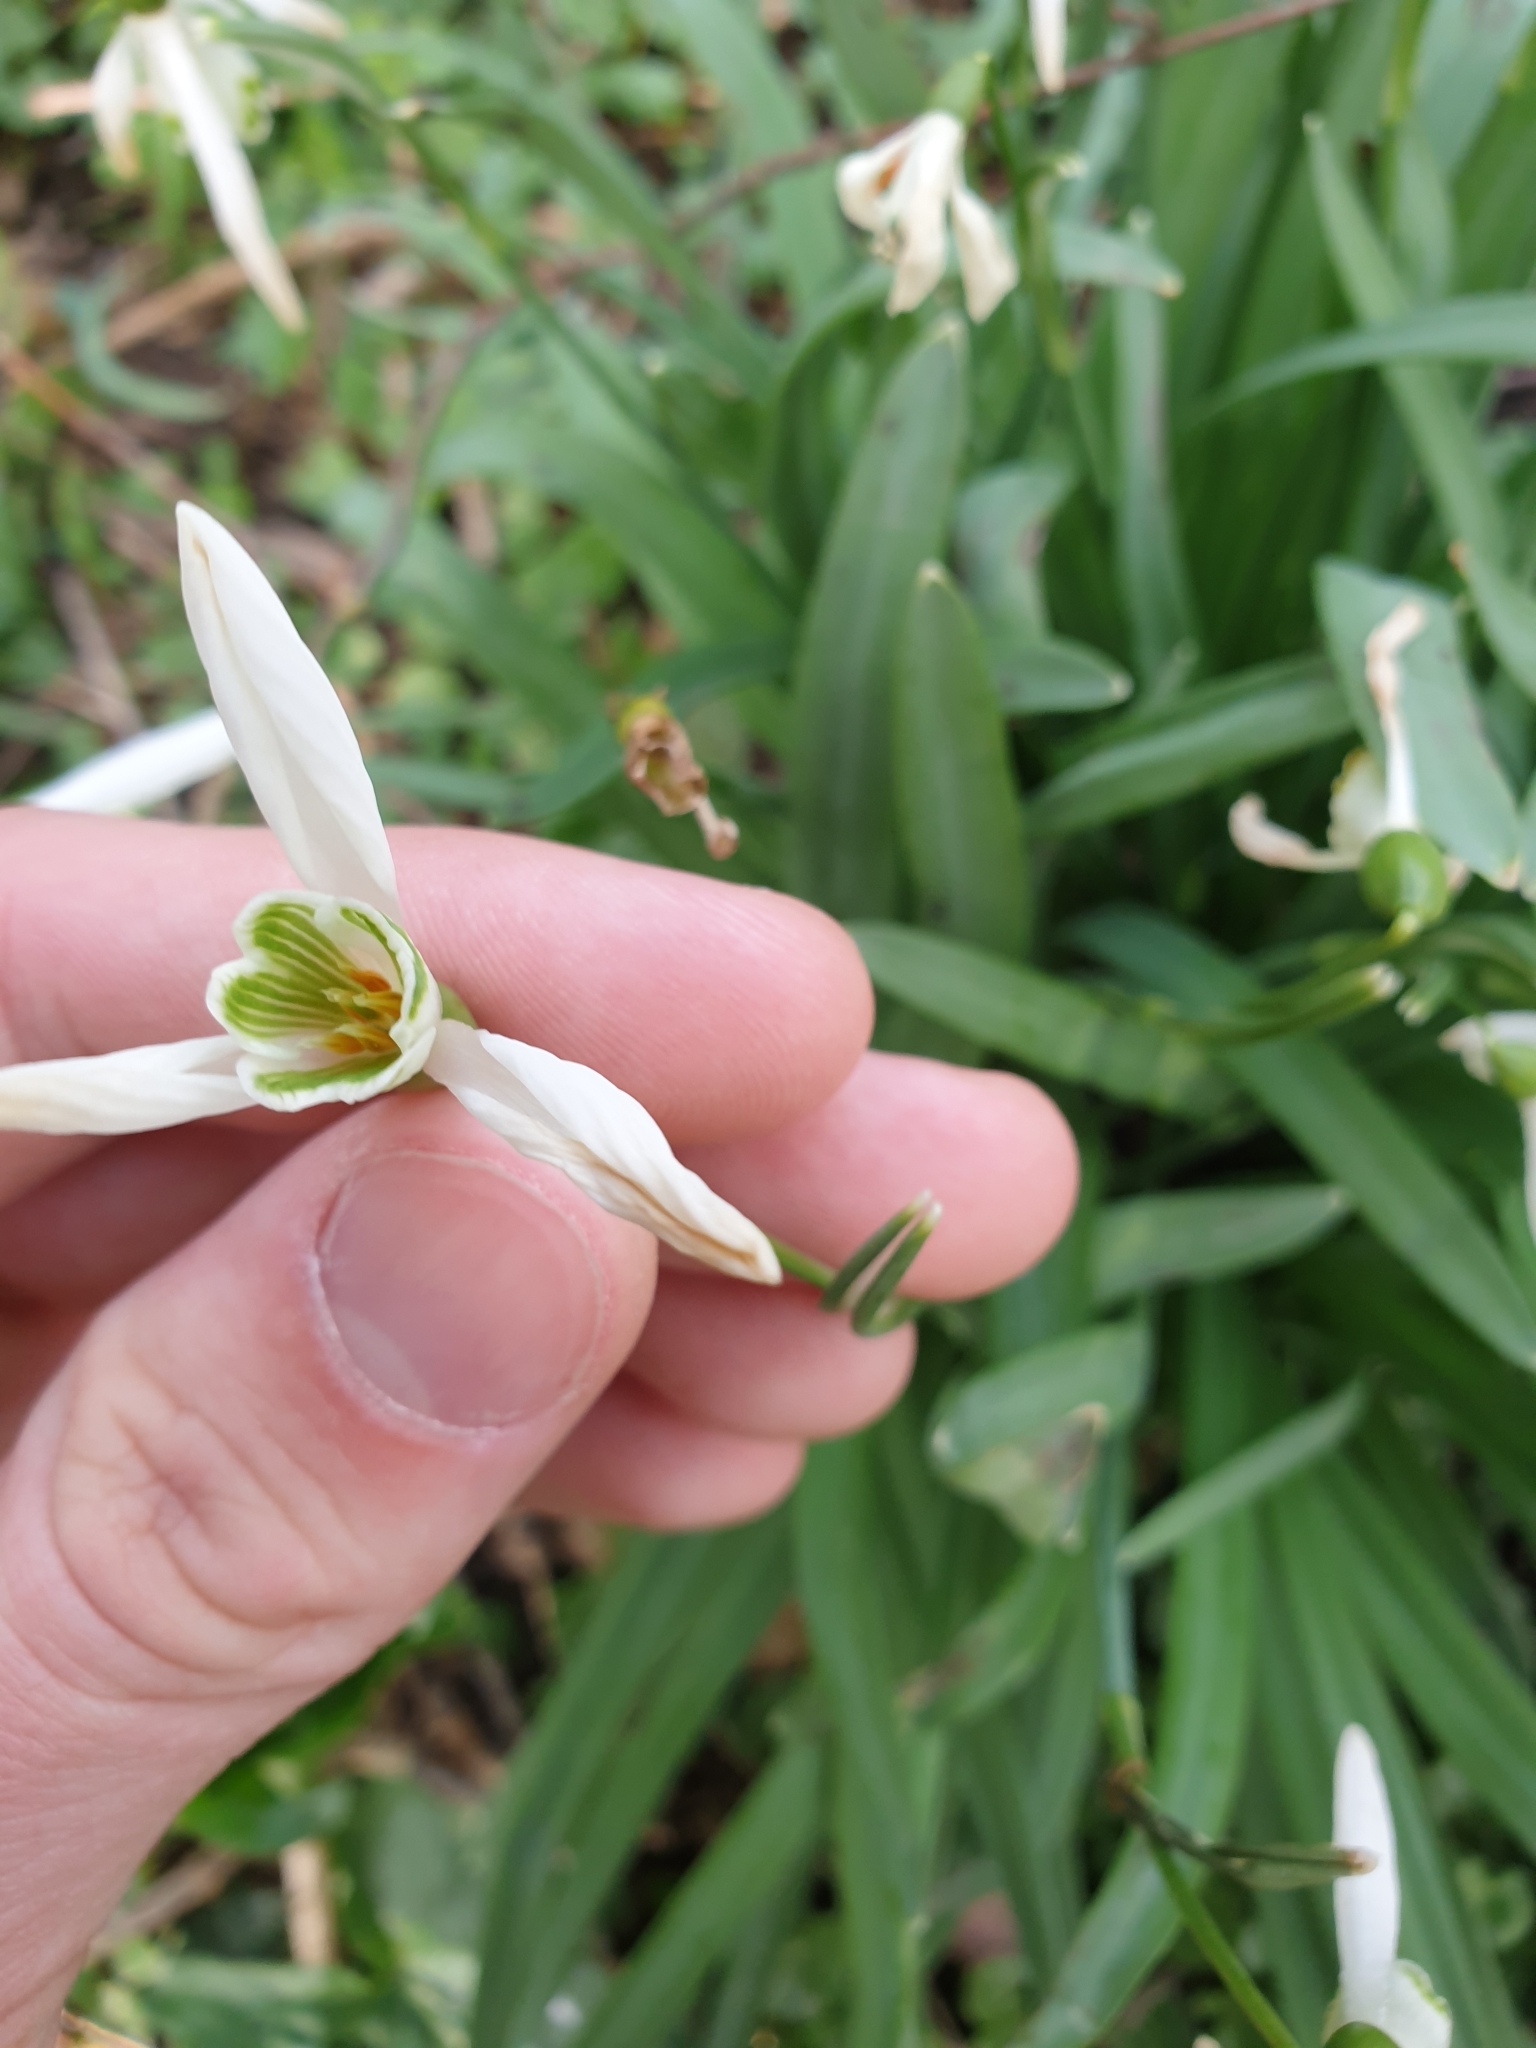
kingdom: Plantae
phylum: Tracheophyta
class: Liliopsida
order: Asparagales
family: Amaryllidaceae
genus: Galanthus
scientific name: Galanthus nivalis
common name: Snowdrop
